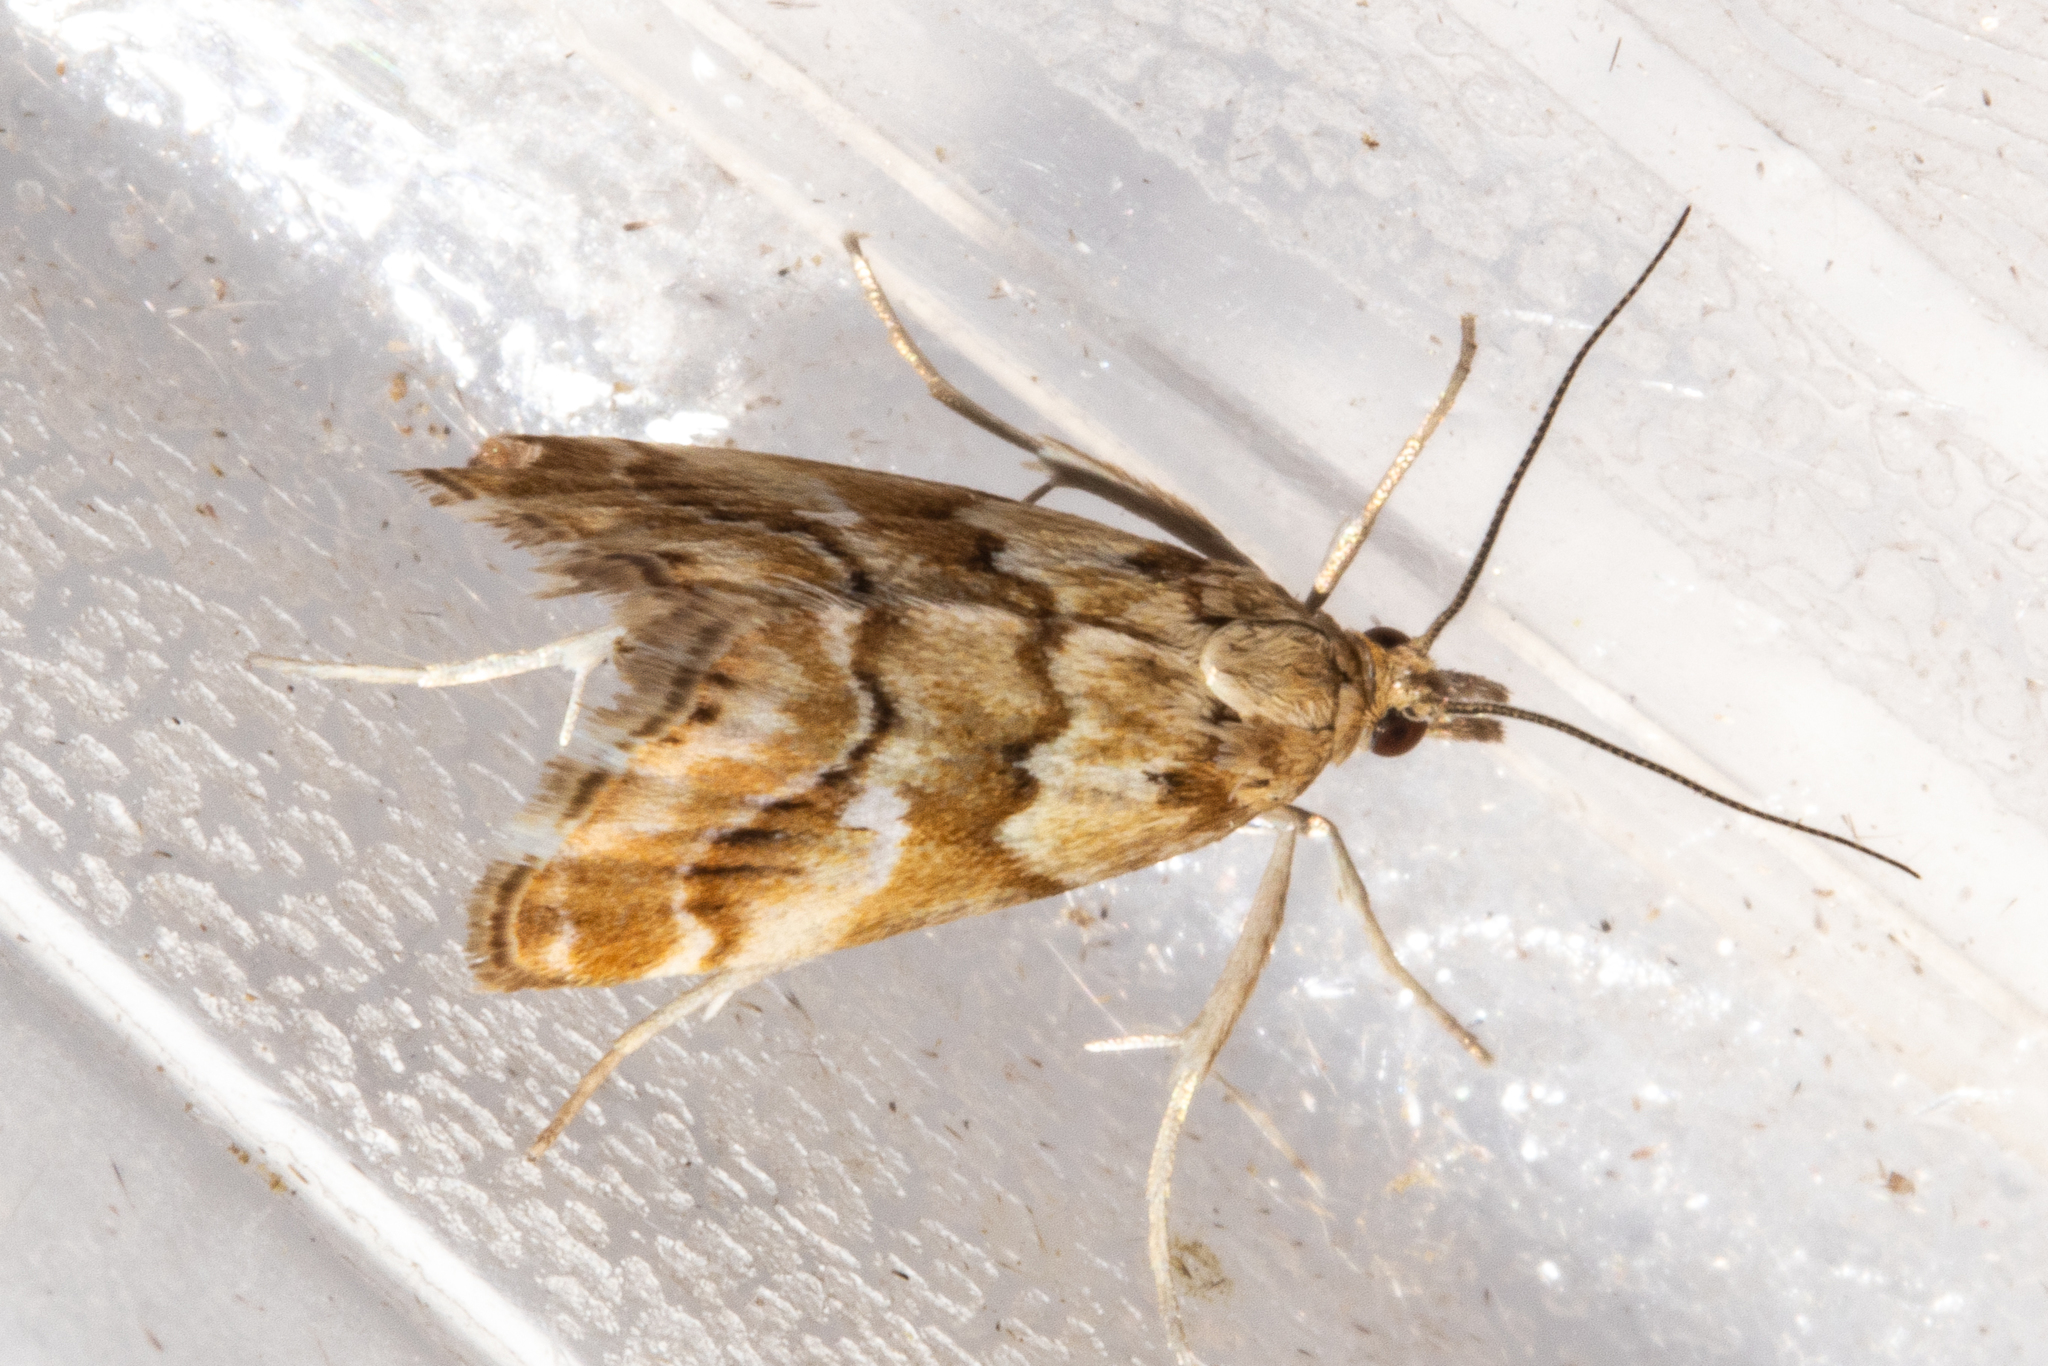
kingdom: Animalia
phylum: Arthropoda
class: Insecta
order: Lepidoptera
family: Crambidae
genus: Glaucocharis
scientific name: Glaucocharis helioctypa
